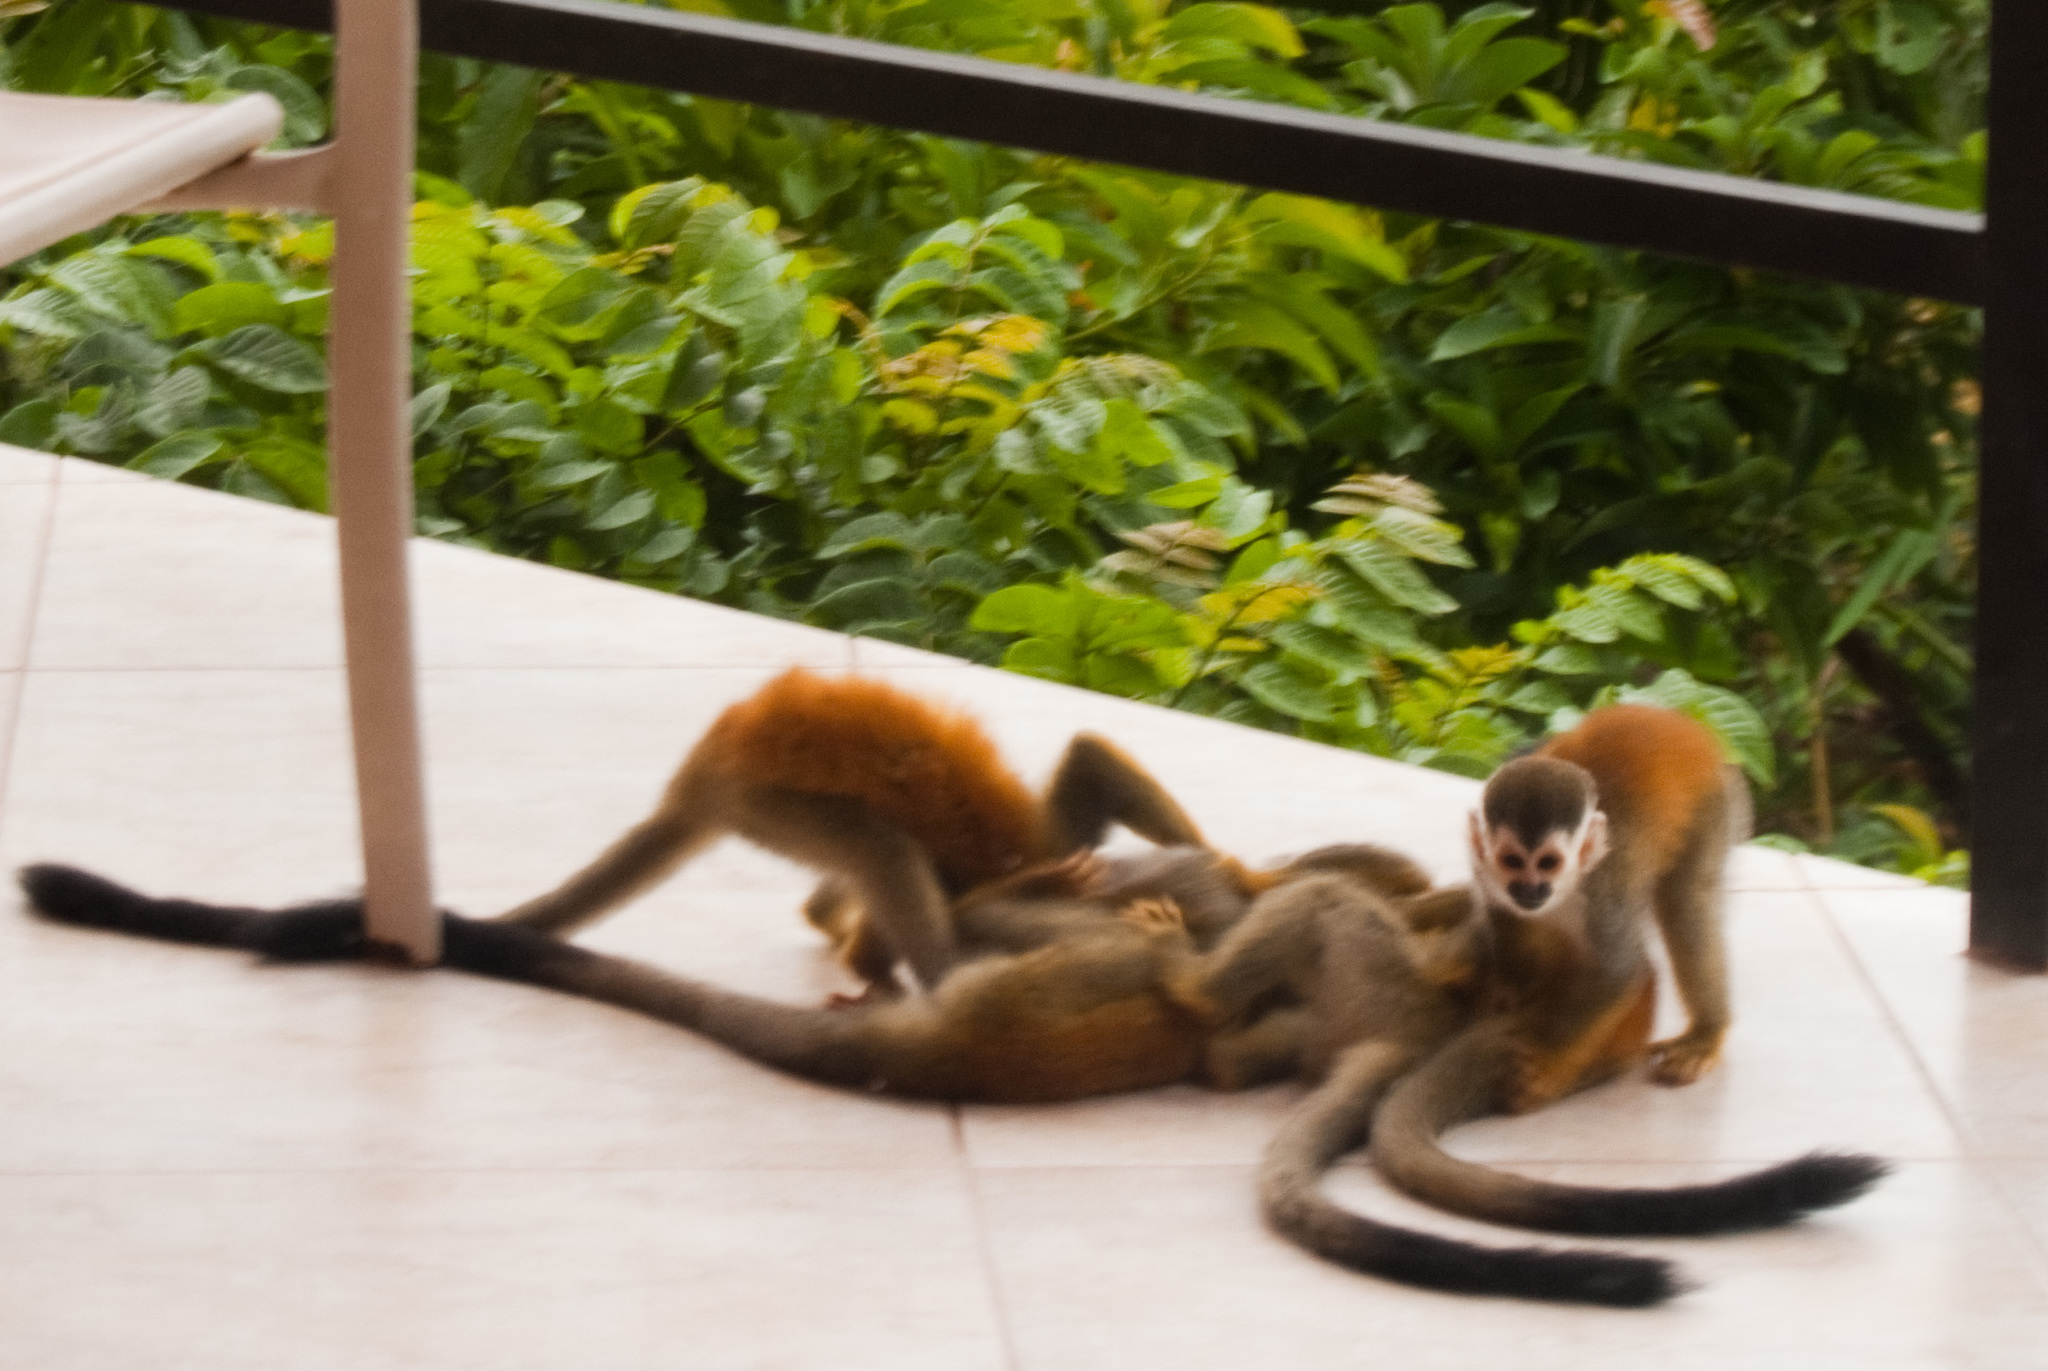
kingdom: Animalia
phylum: Chordata
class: Mammalia
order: Primates
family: Cebidae
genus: Saimiri
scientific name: Saimiri oerstedii
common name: Central american squirrel monkey
